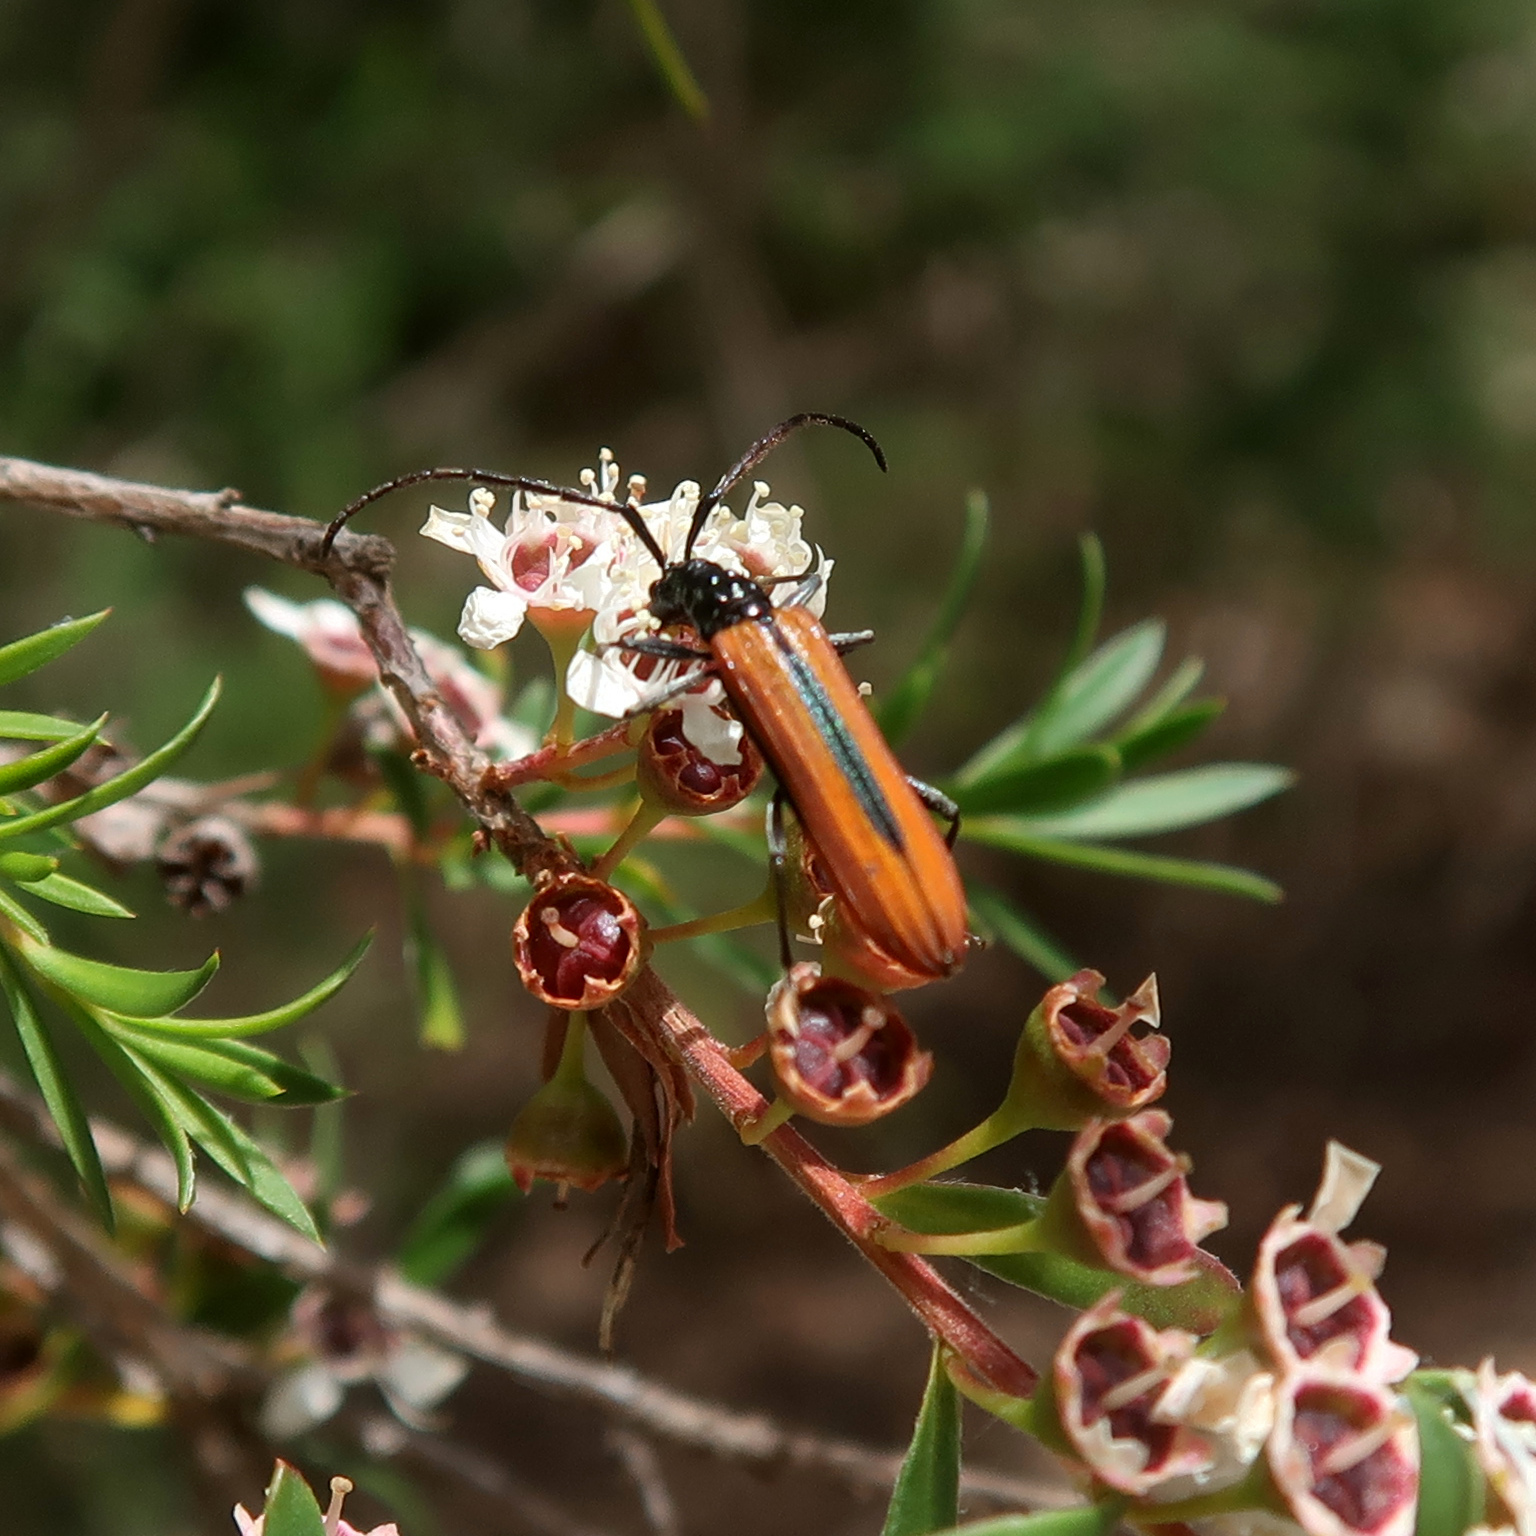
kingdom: Animalia
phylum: Arthropoda
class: Insecta
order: Coleoptera
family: Cerambycidae
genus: Stenoderus
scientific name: Stenoderus suturalis
